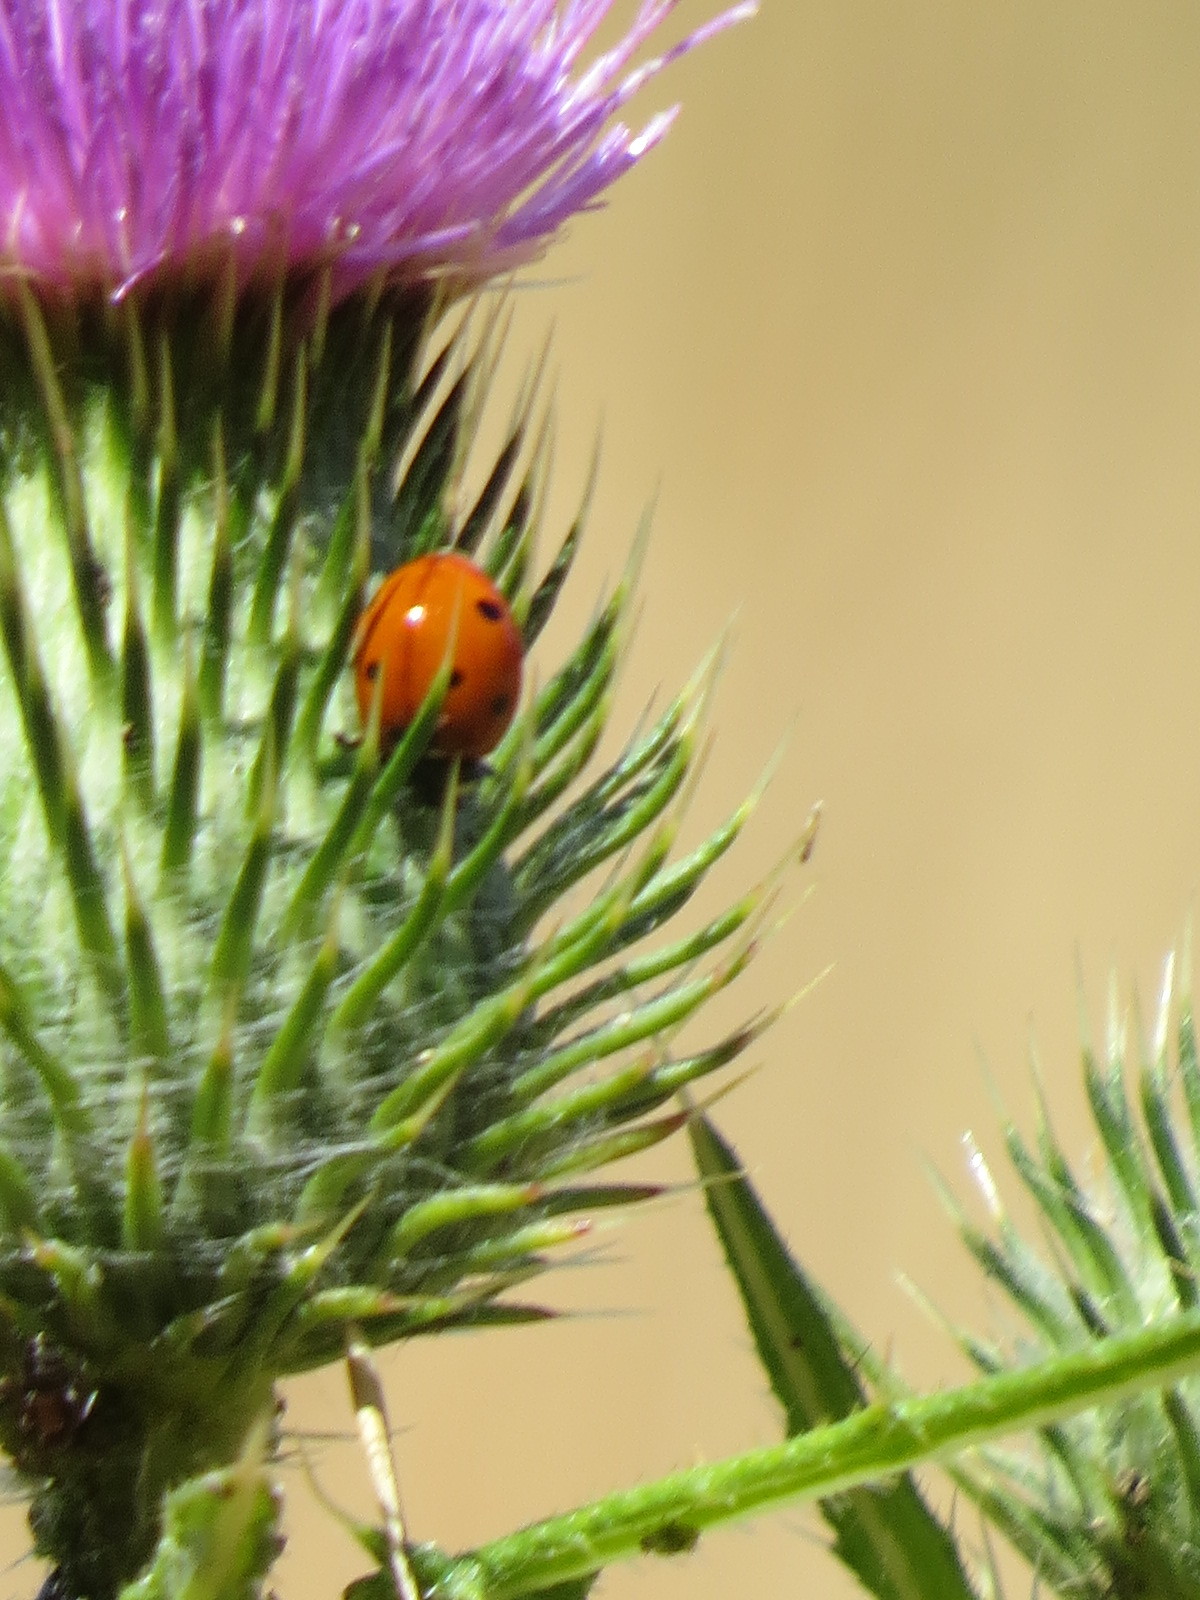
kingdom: Animalia
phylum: Arthropoda
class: Insecta
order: Coleoptera
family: Coccinellidae
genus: Coccinella
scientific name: Coccinella septempunctata
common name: Sevenspotted lady beetle
